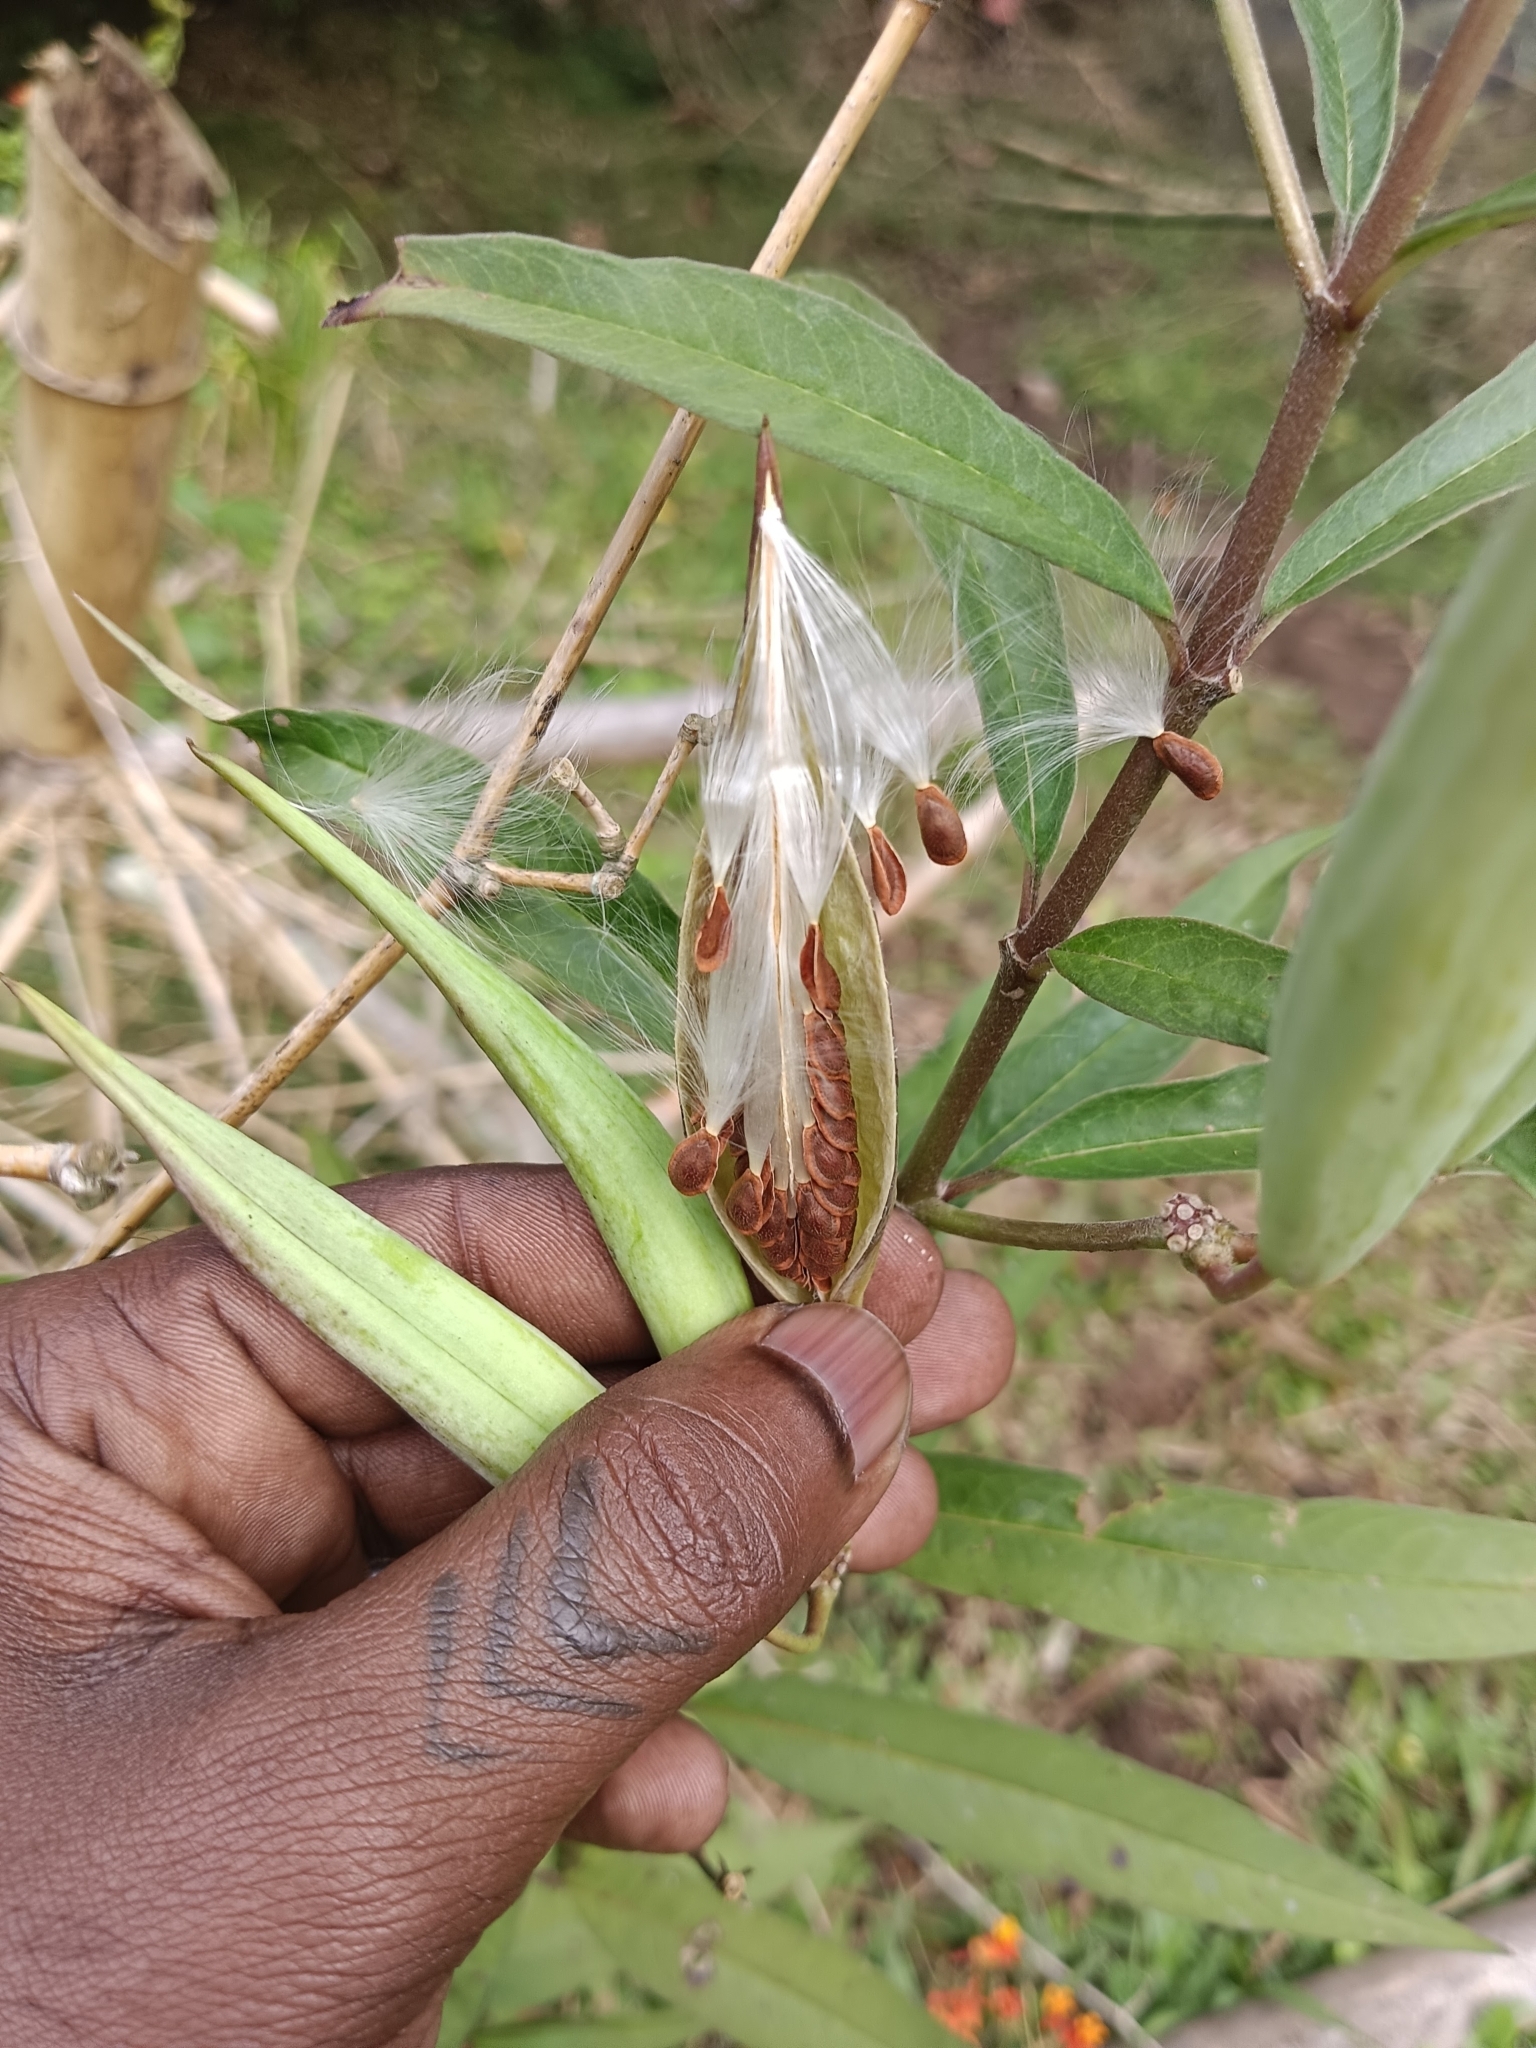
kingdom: Plantae
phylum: Tracheophyta
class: Magnoliopsida
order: Gentianales
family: Apocynaceae
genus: Asclepias
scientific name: Asclepias curassavica
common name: Bloodflower
